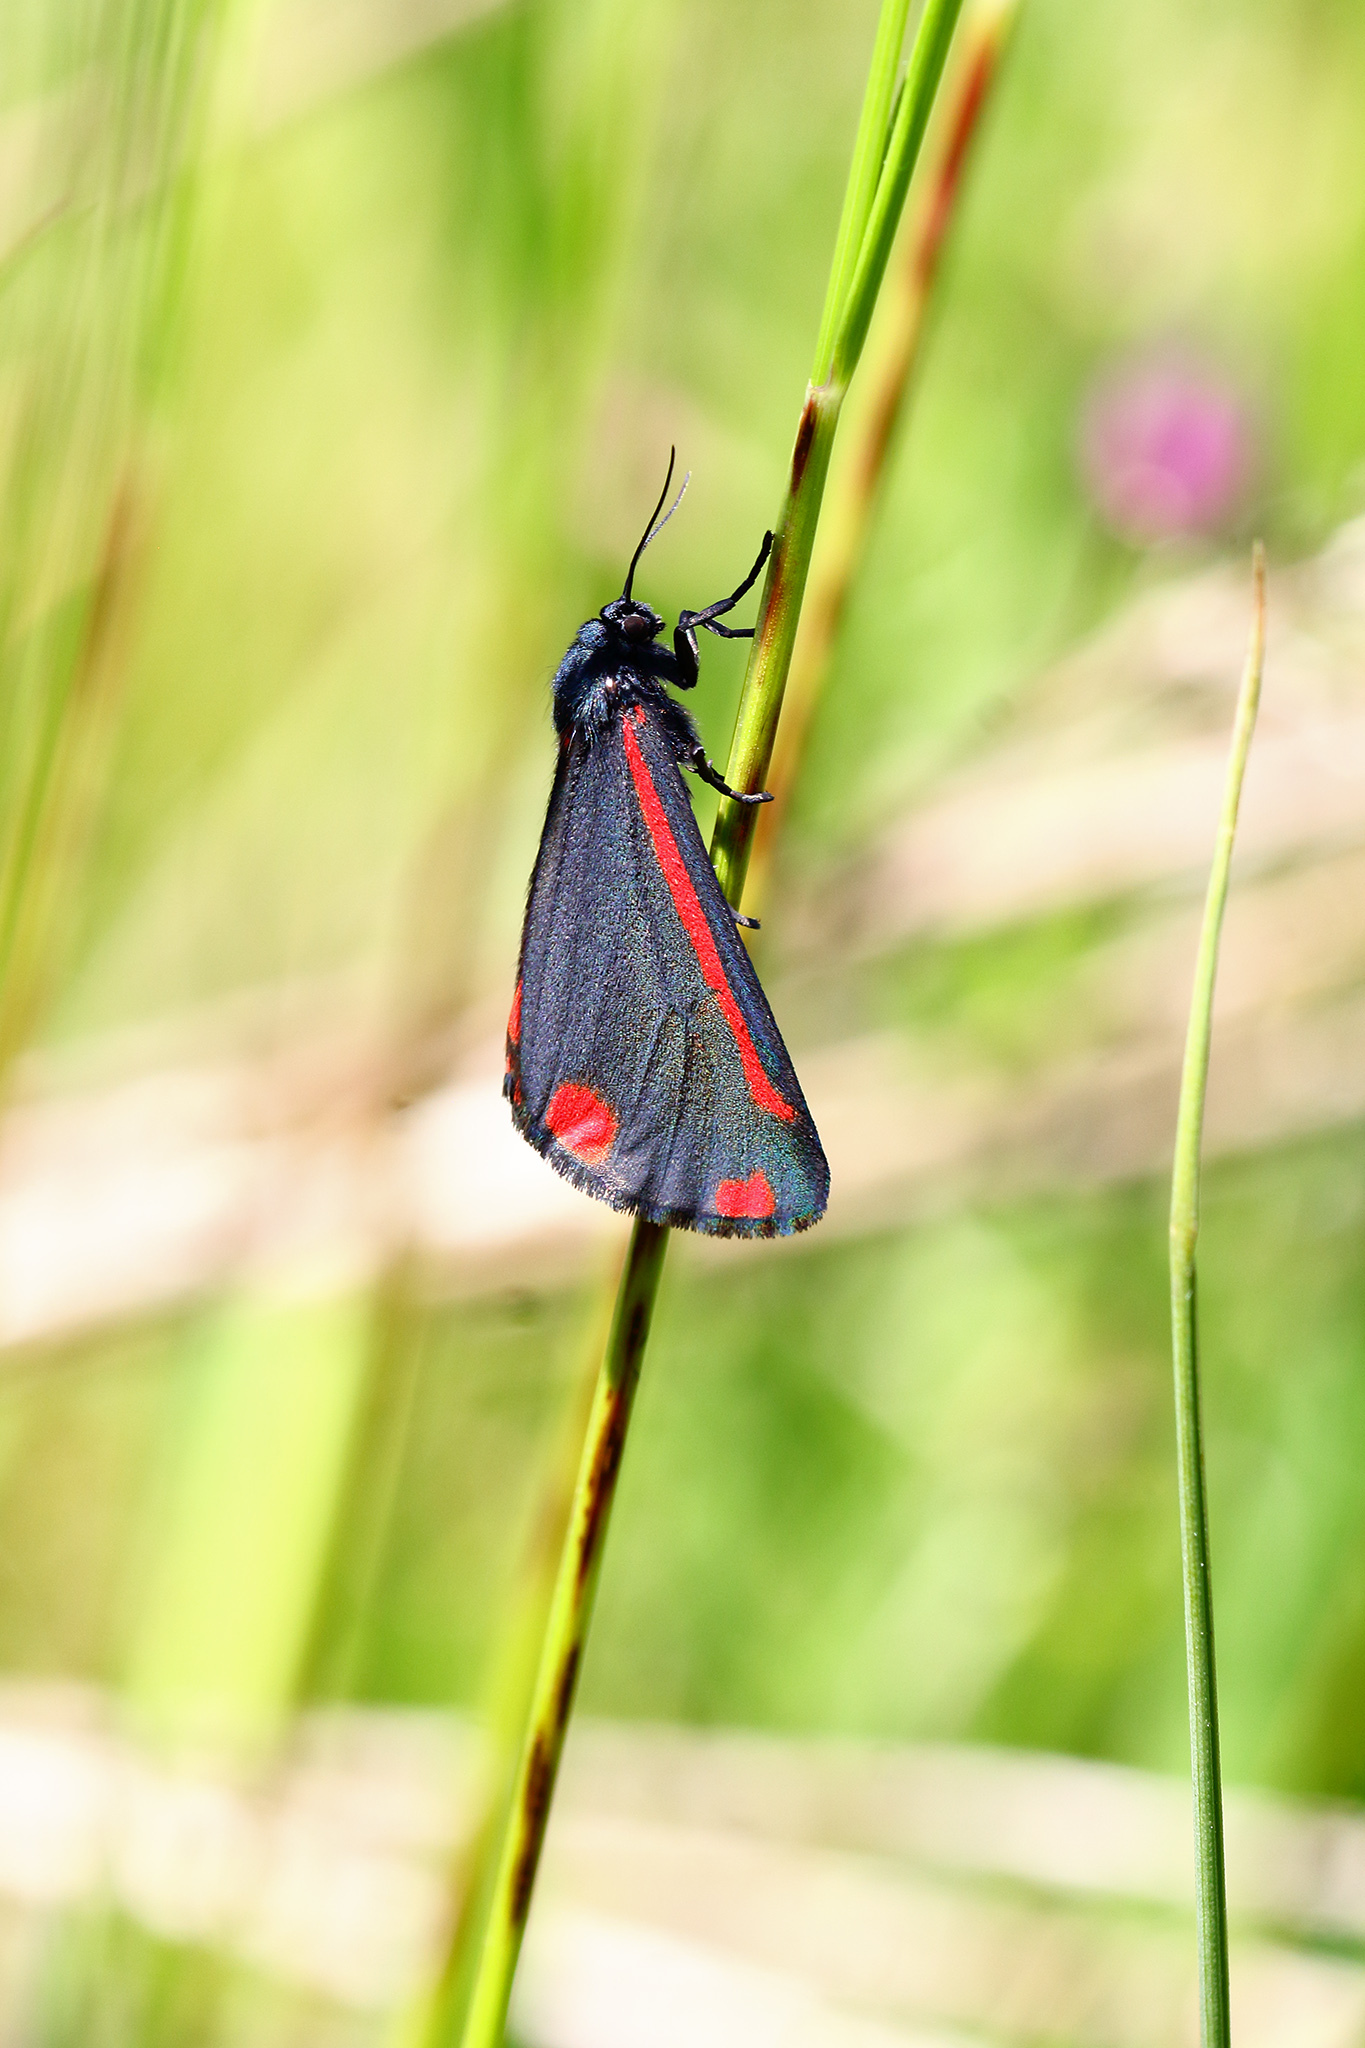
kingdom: Animalia
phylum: Arthropoda
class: Insecta
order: Lepidoptera
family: Erebidae
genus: Tyria
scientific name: Tyria jacobaeae
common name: Cinnabar
